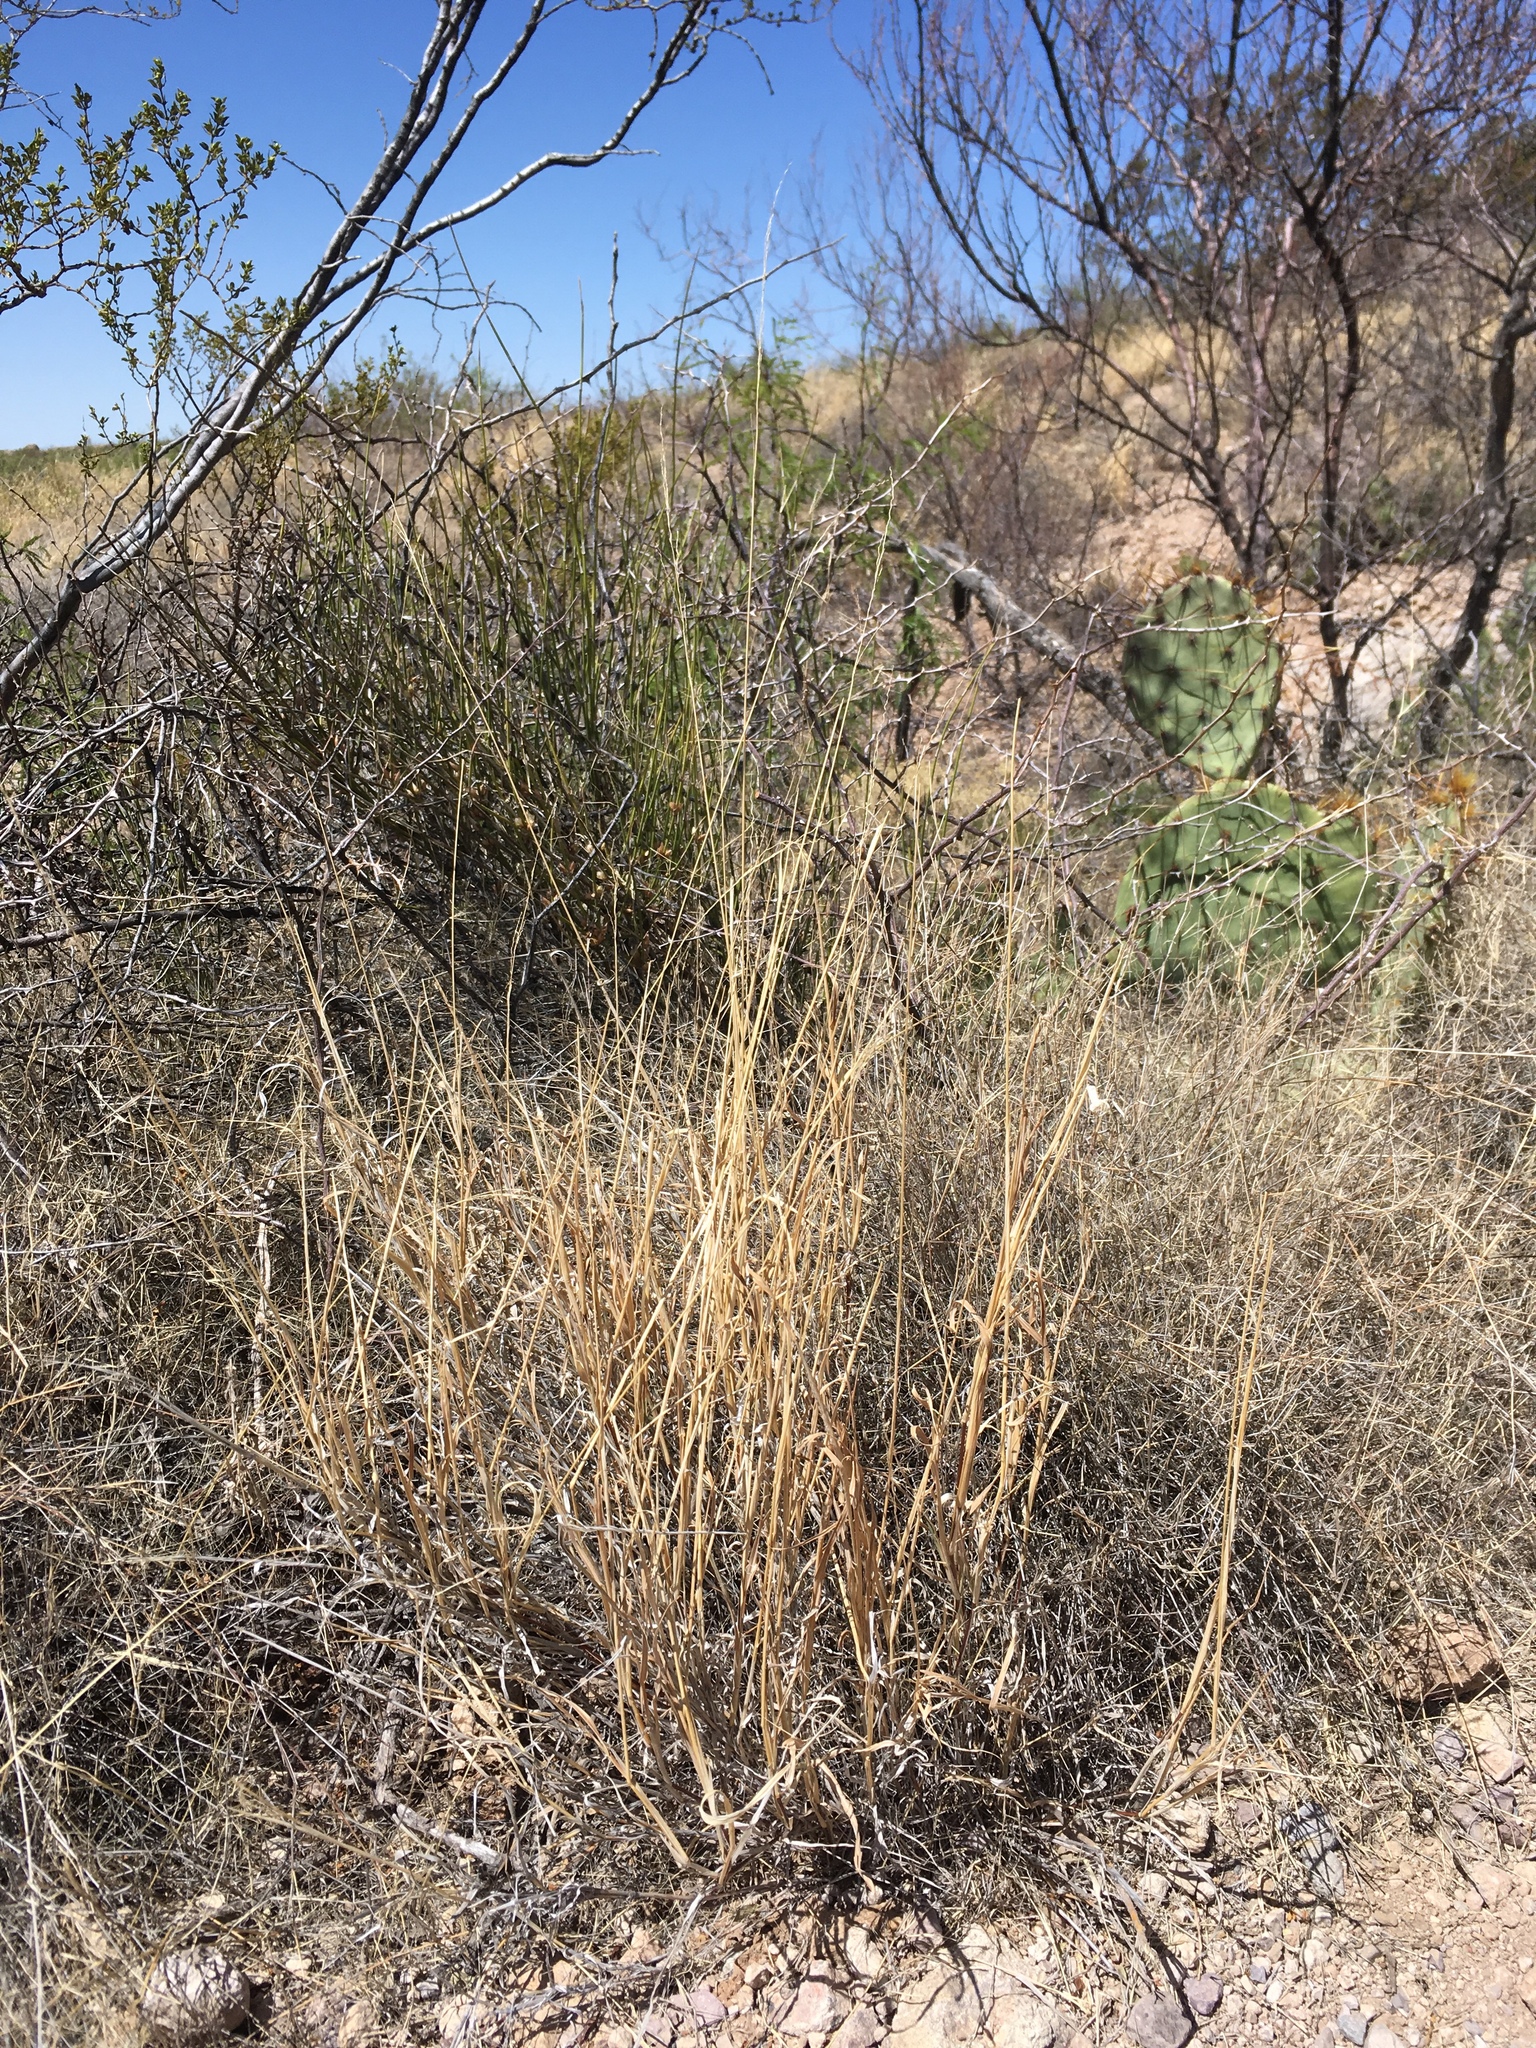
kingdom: Plantae
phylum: Tracheophyta
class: Liliopsida
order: Poales
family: Poaceae
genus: Digitaria
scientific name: Digitaria californica
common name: Arizona cottontop
